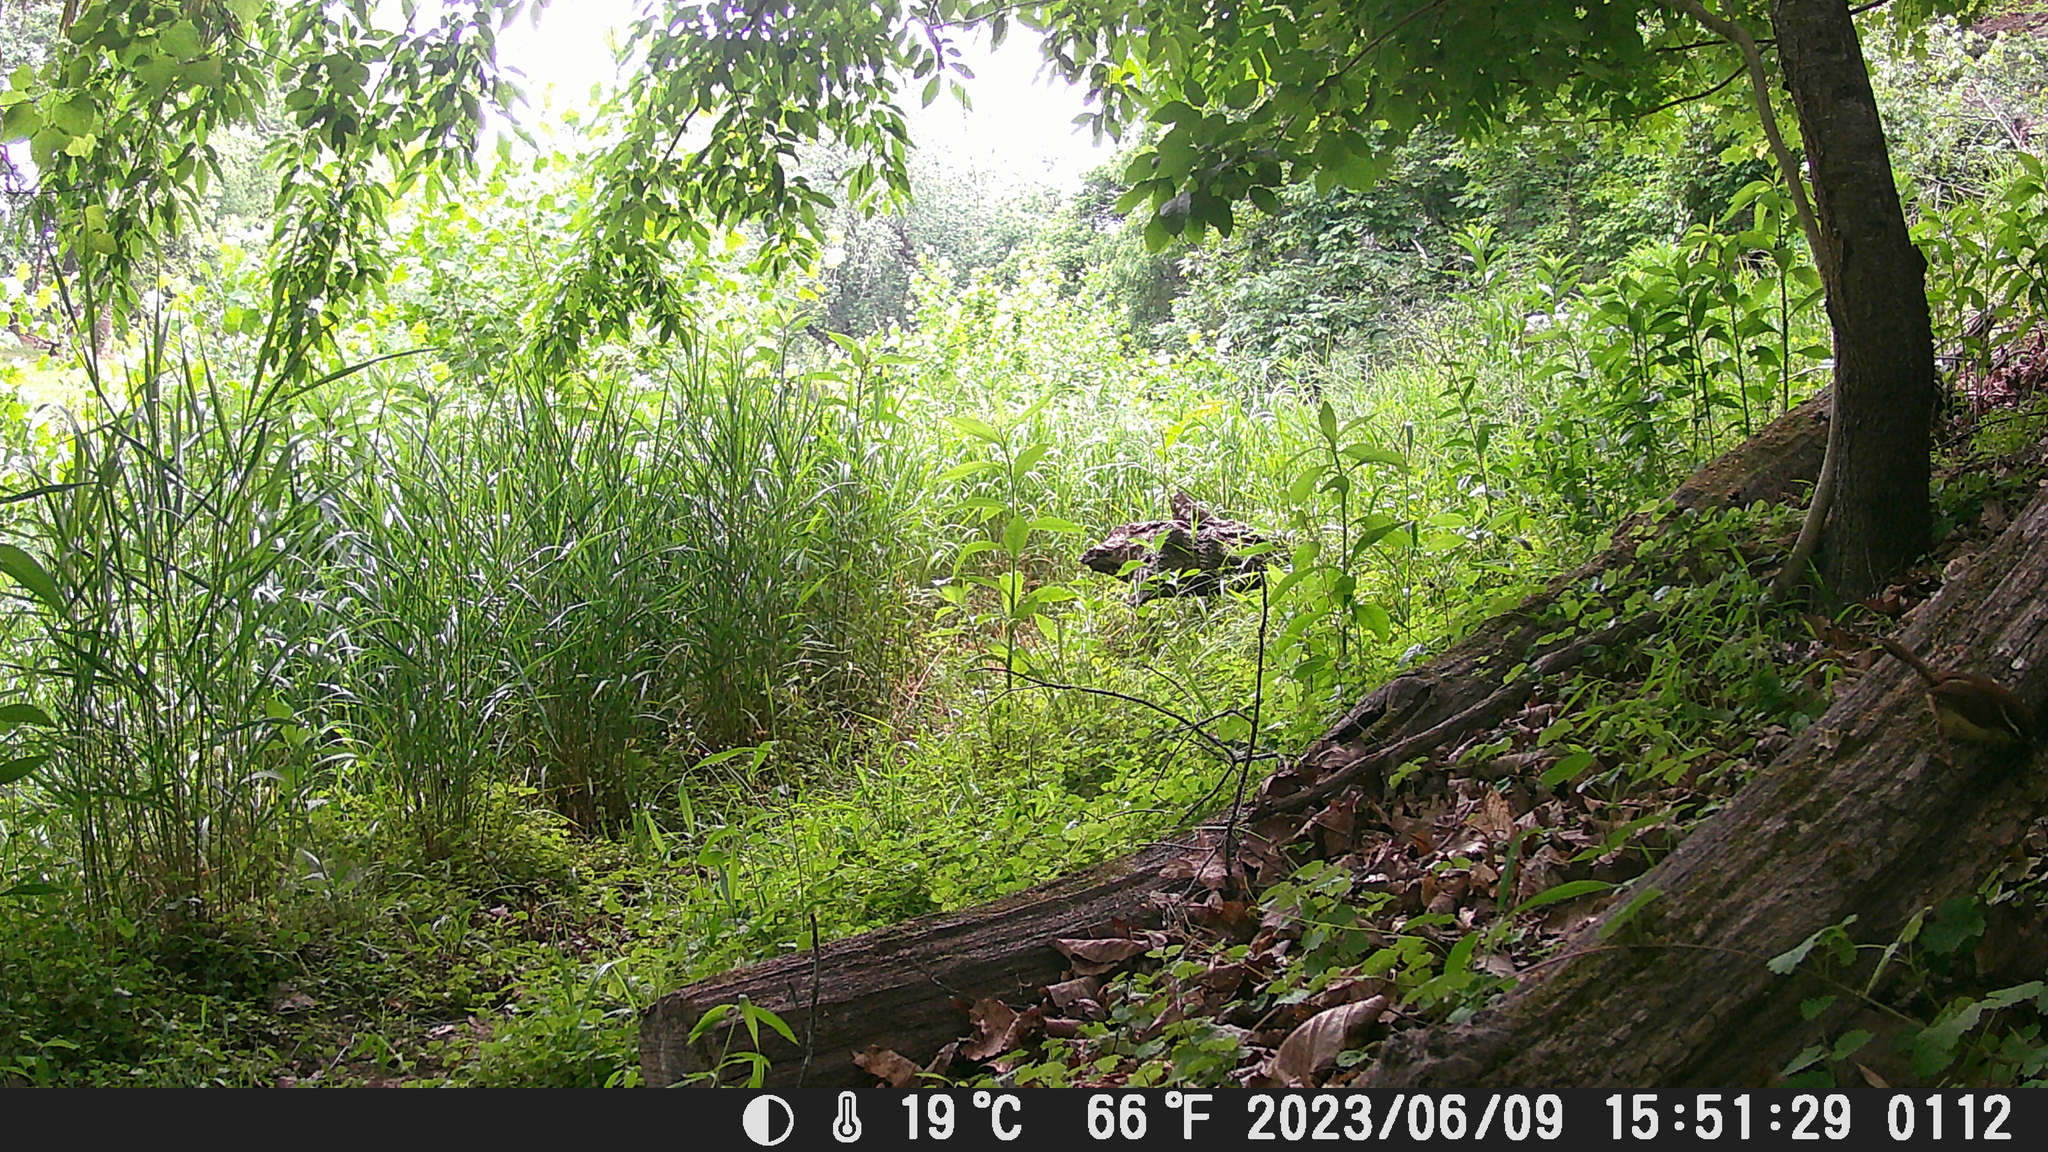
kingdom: Animalia
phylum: Chordata
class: Aves
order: Passeriformes
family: Troglodytidae
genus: Thryothorus
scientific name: Thryothorus ludovicianus
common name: Carolina wren
